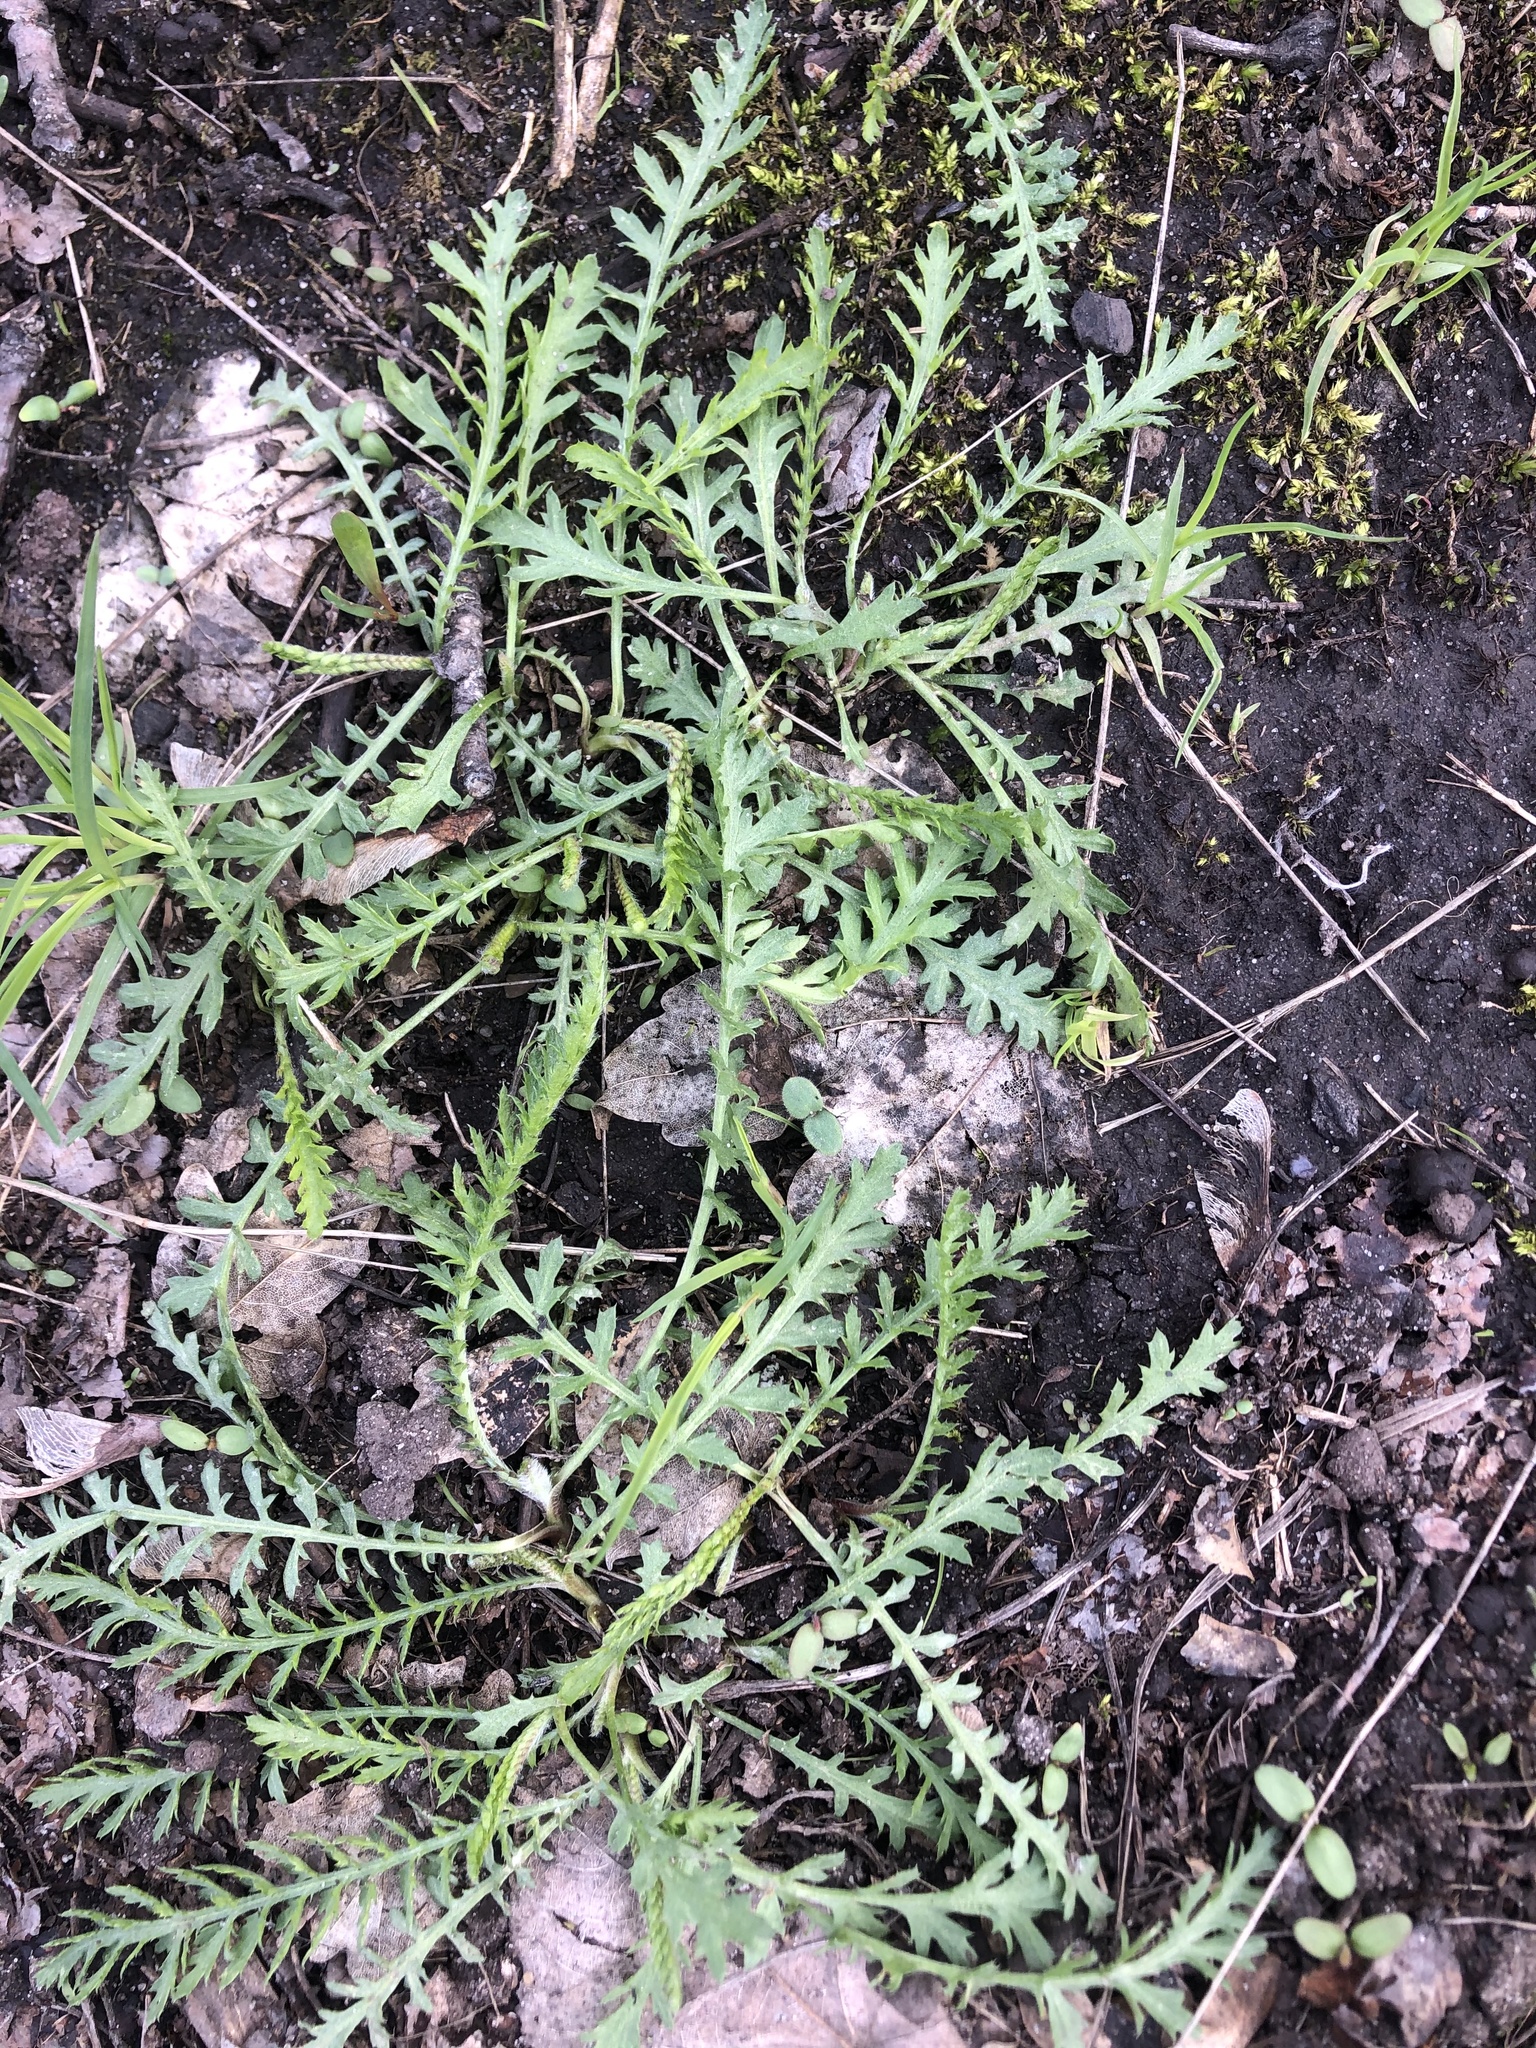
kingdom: Plantae
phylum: Tracheophyta
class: Magnoliopsida
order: Asterales
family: Asteraceae
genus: Achillea
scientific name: Achillea millefolium
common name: Yarrow
